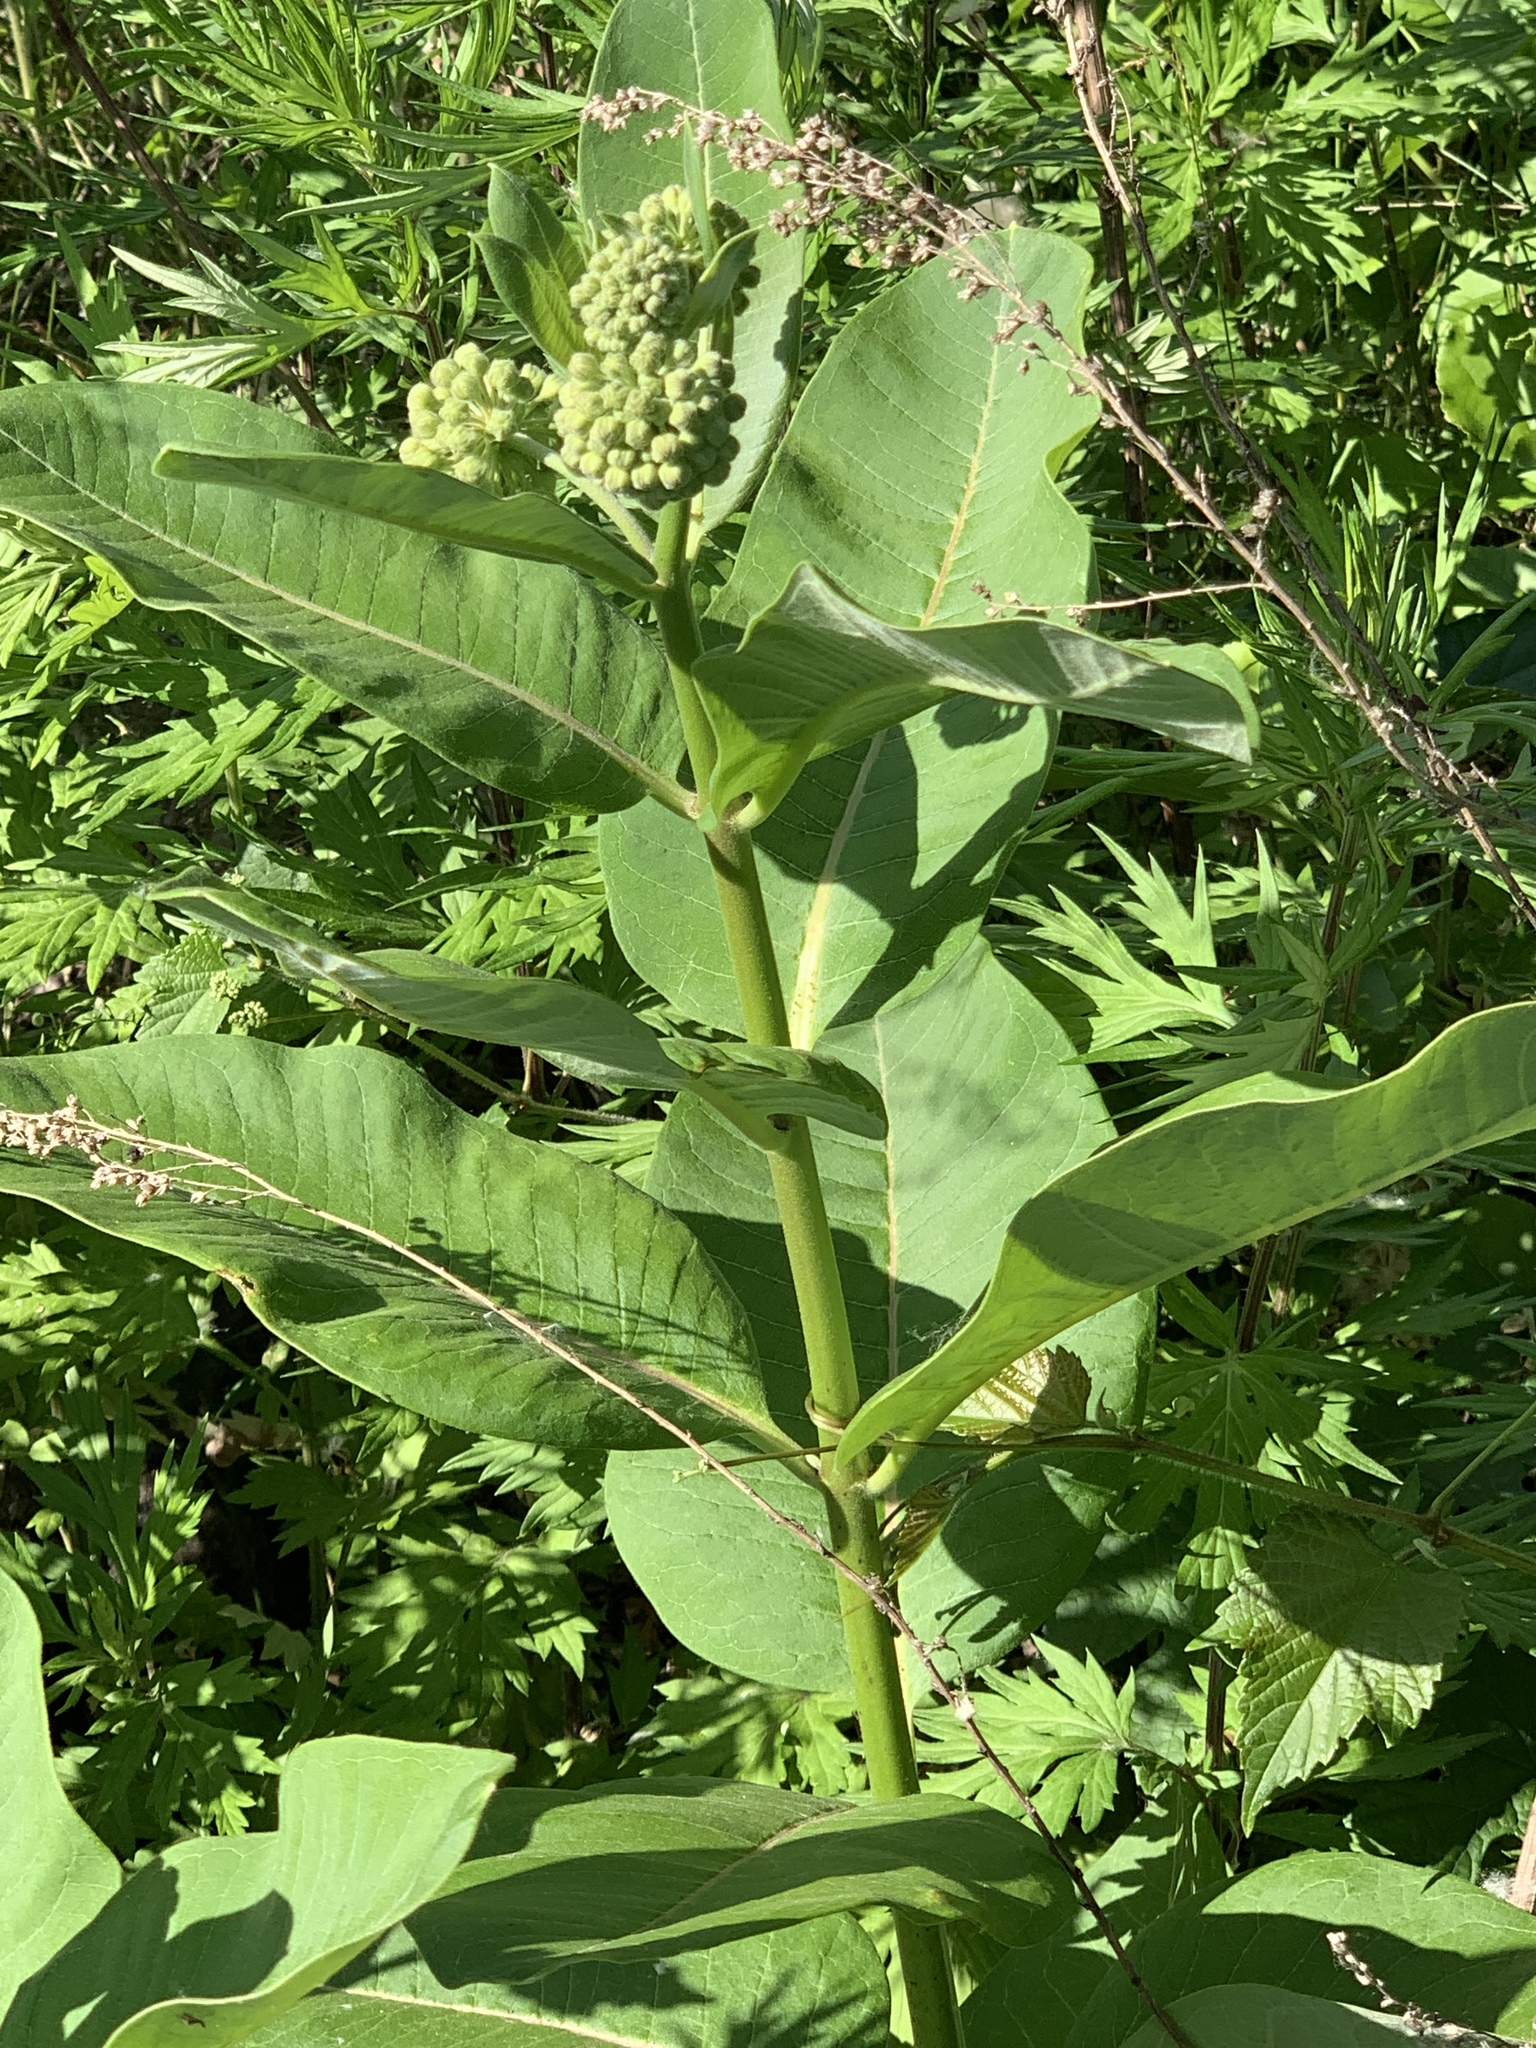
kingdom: Plantae
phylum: Tracheophyta
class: Magnoliopsida
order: Gentianales
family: Apocynaceae
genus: Asclepias
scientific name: Asclepias syriaca
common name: Common milkweed
